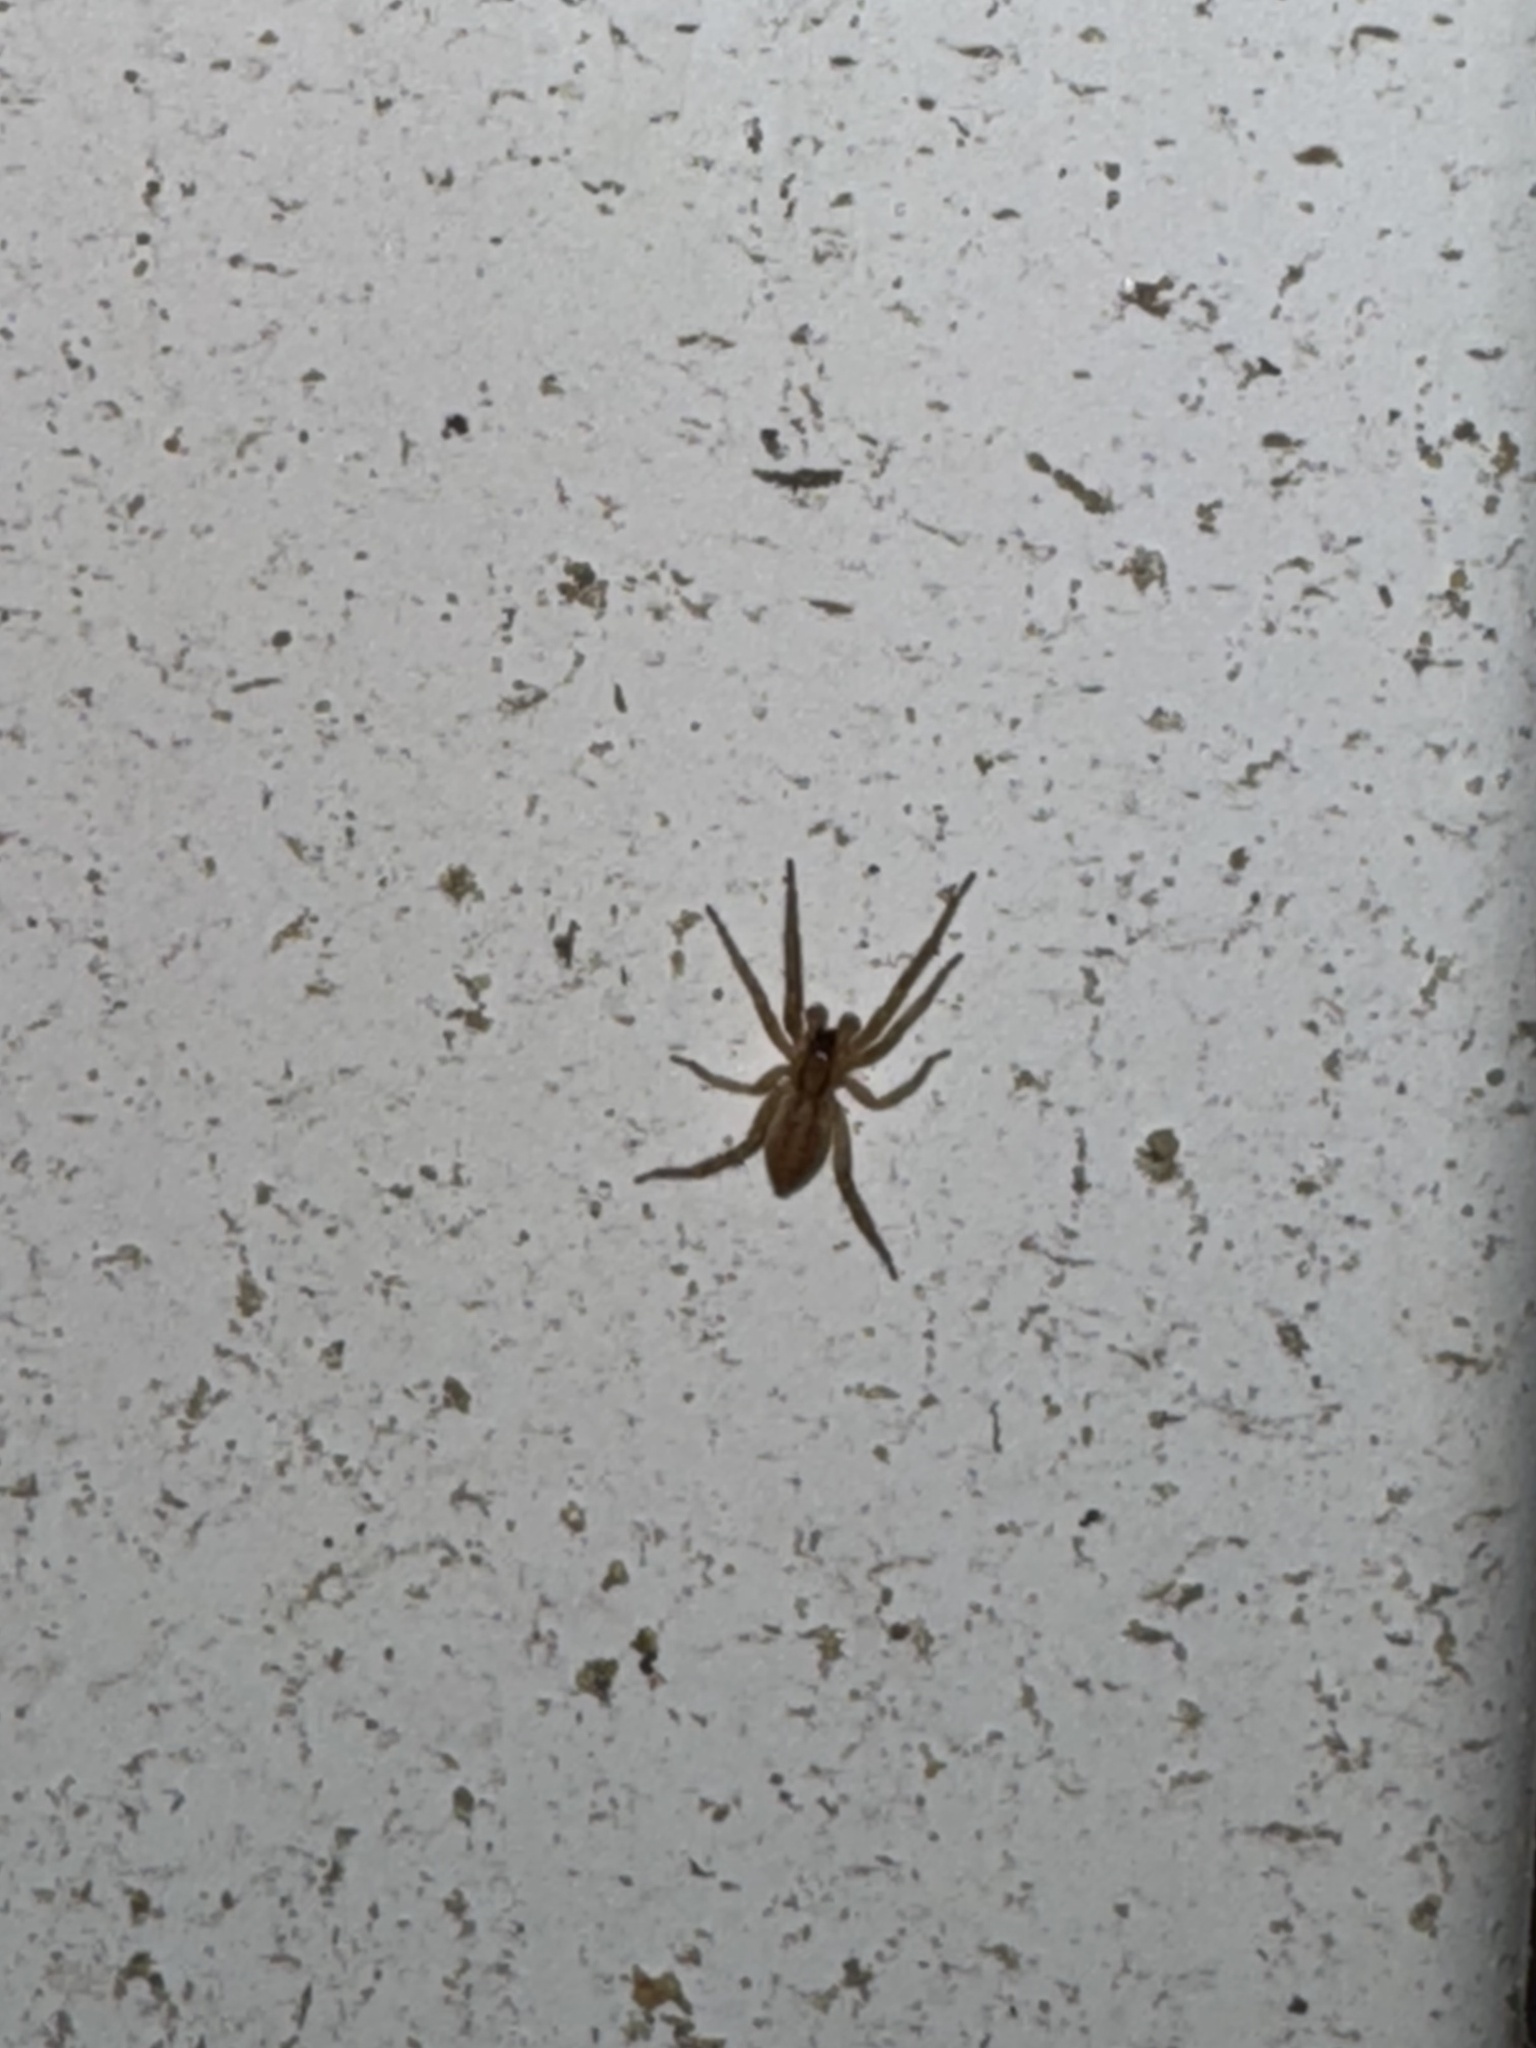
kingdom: Animalia
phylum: Arthropoda
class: Arachnida
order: Araneae
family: Anyphaenidae
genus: Hibana
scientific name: Hibana gracilis
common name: Garden ghost spider
